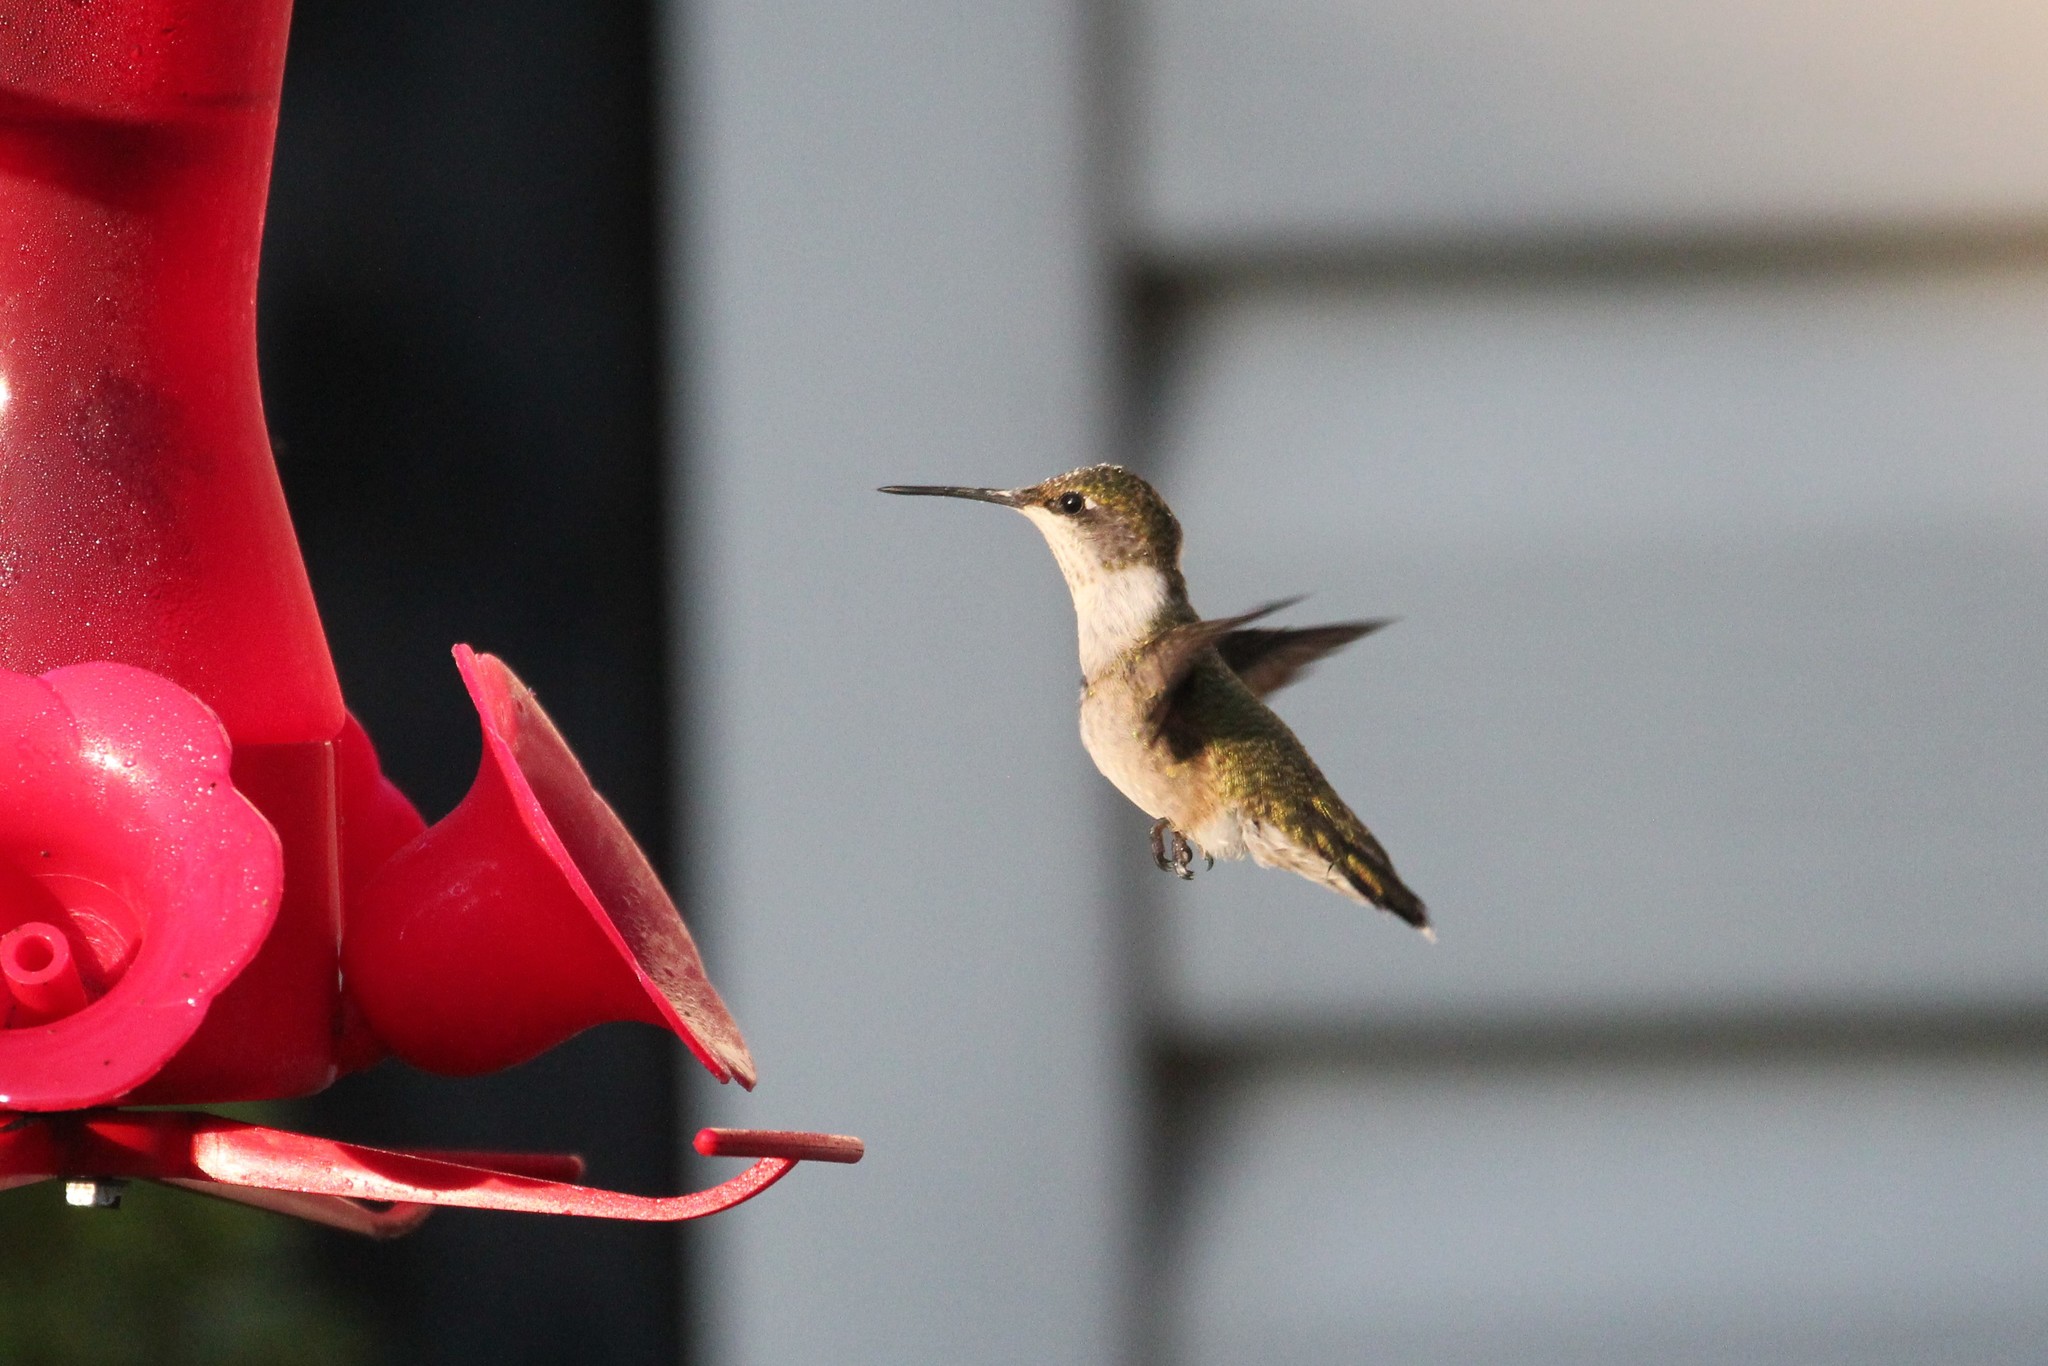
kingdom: Animalia
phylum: Chordata
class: Aves
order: Apodiformes
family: Trochilidae
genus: Archilochus
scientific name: Archilochus colubris
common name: Ruby-throated hummingbird
